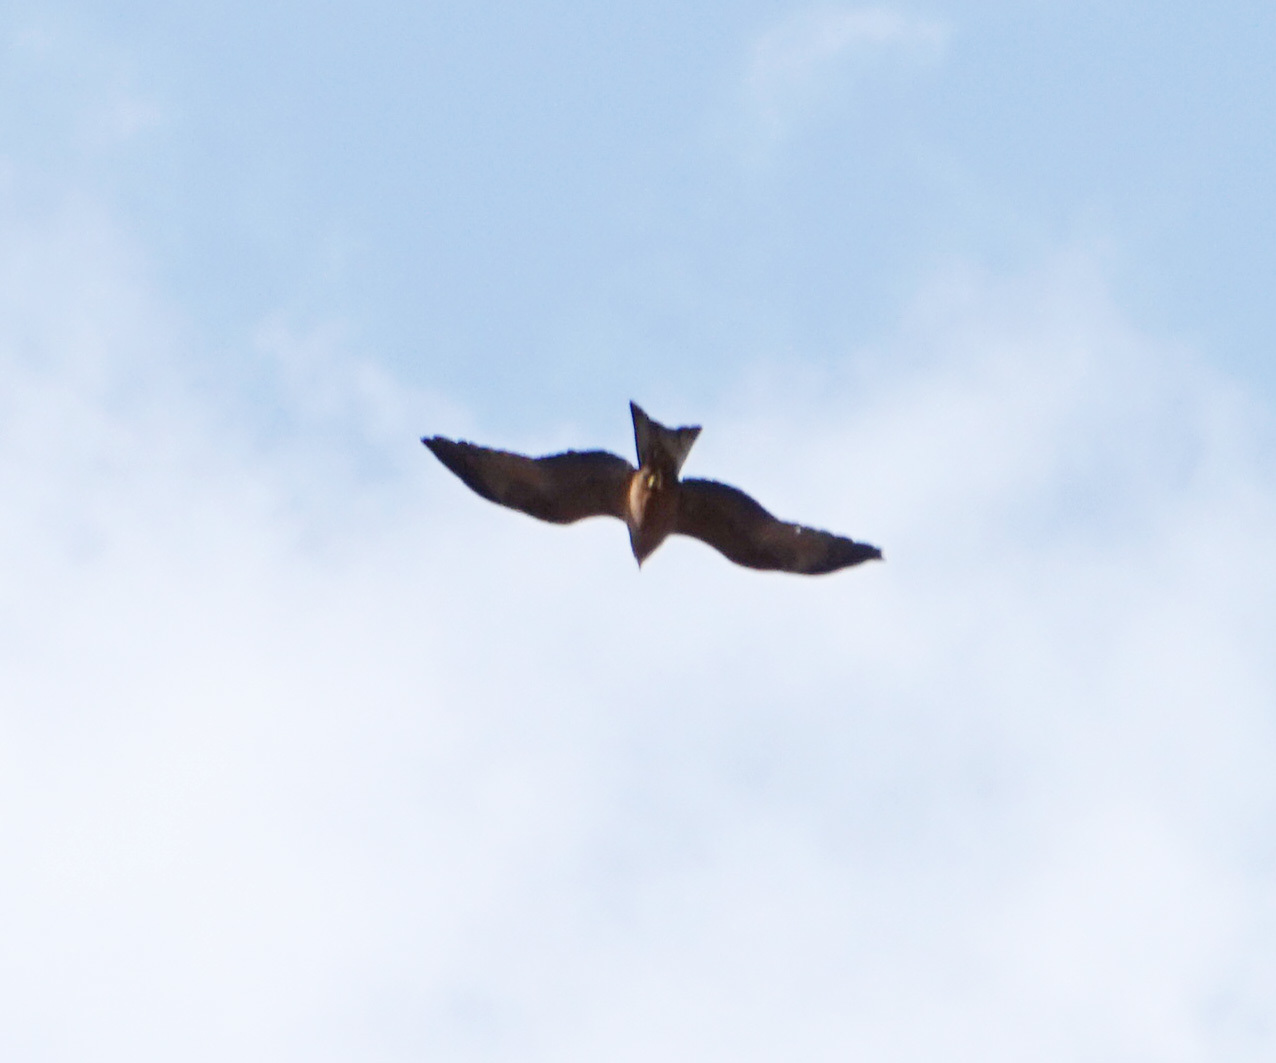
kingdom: Animalia
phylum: Chordata
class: Aves
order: Accipitriformes
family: Accipitridae
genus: Milvus
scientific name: Milvus migrans
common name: Black kite
